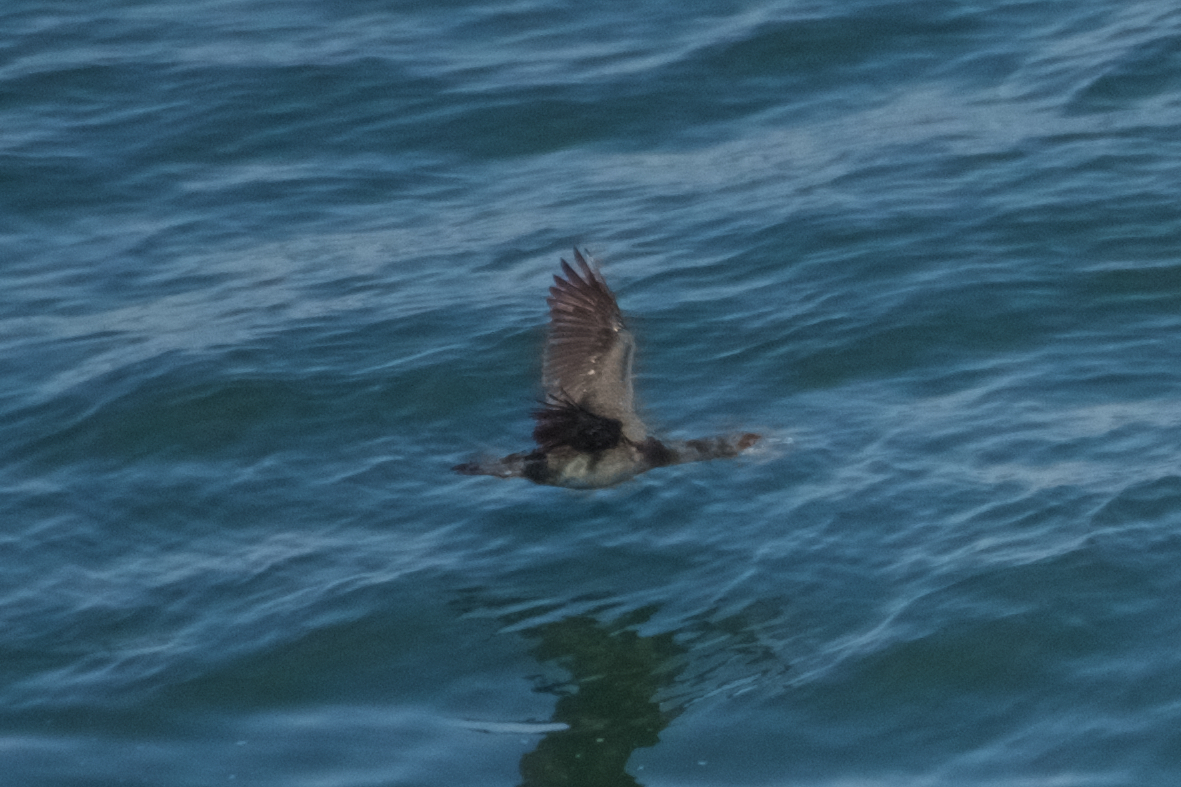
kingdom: Animalia
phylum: Chordata
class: Aves
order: Suliformes
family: Phalacrocoracidae
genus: Urile
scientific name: Urile penicillatus
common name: Brandt's cormorant
